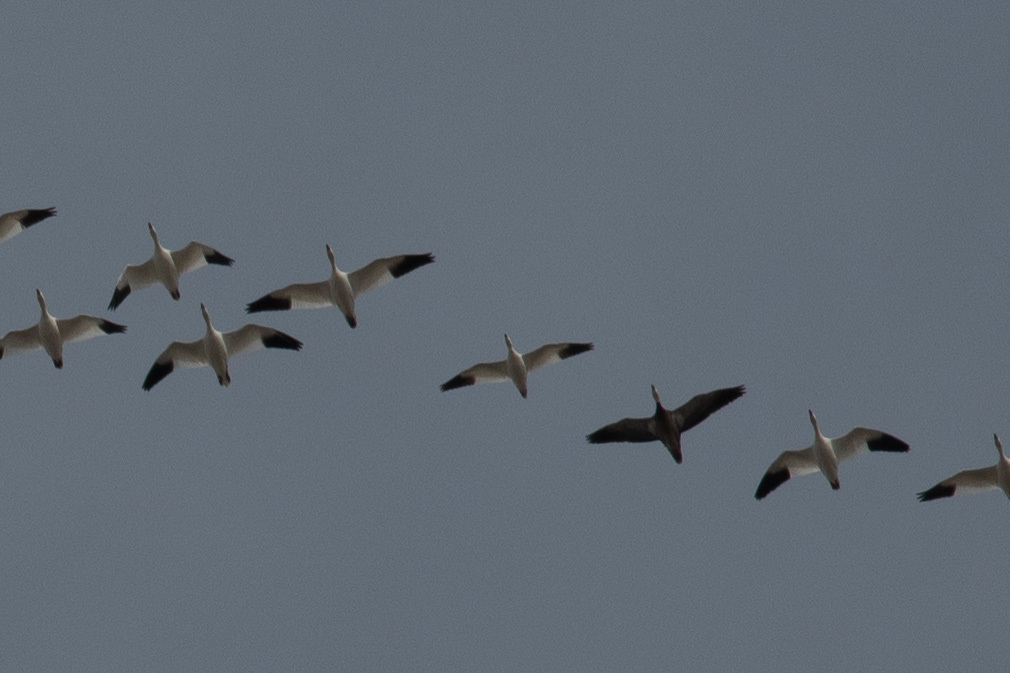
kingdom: Animalia
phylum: Chordata
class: Aves
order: Anseriformes
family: Anatidae
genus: Anser
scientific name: Anser rossii
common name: Ross's goose
